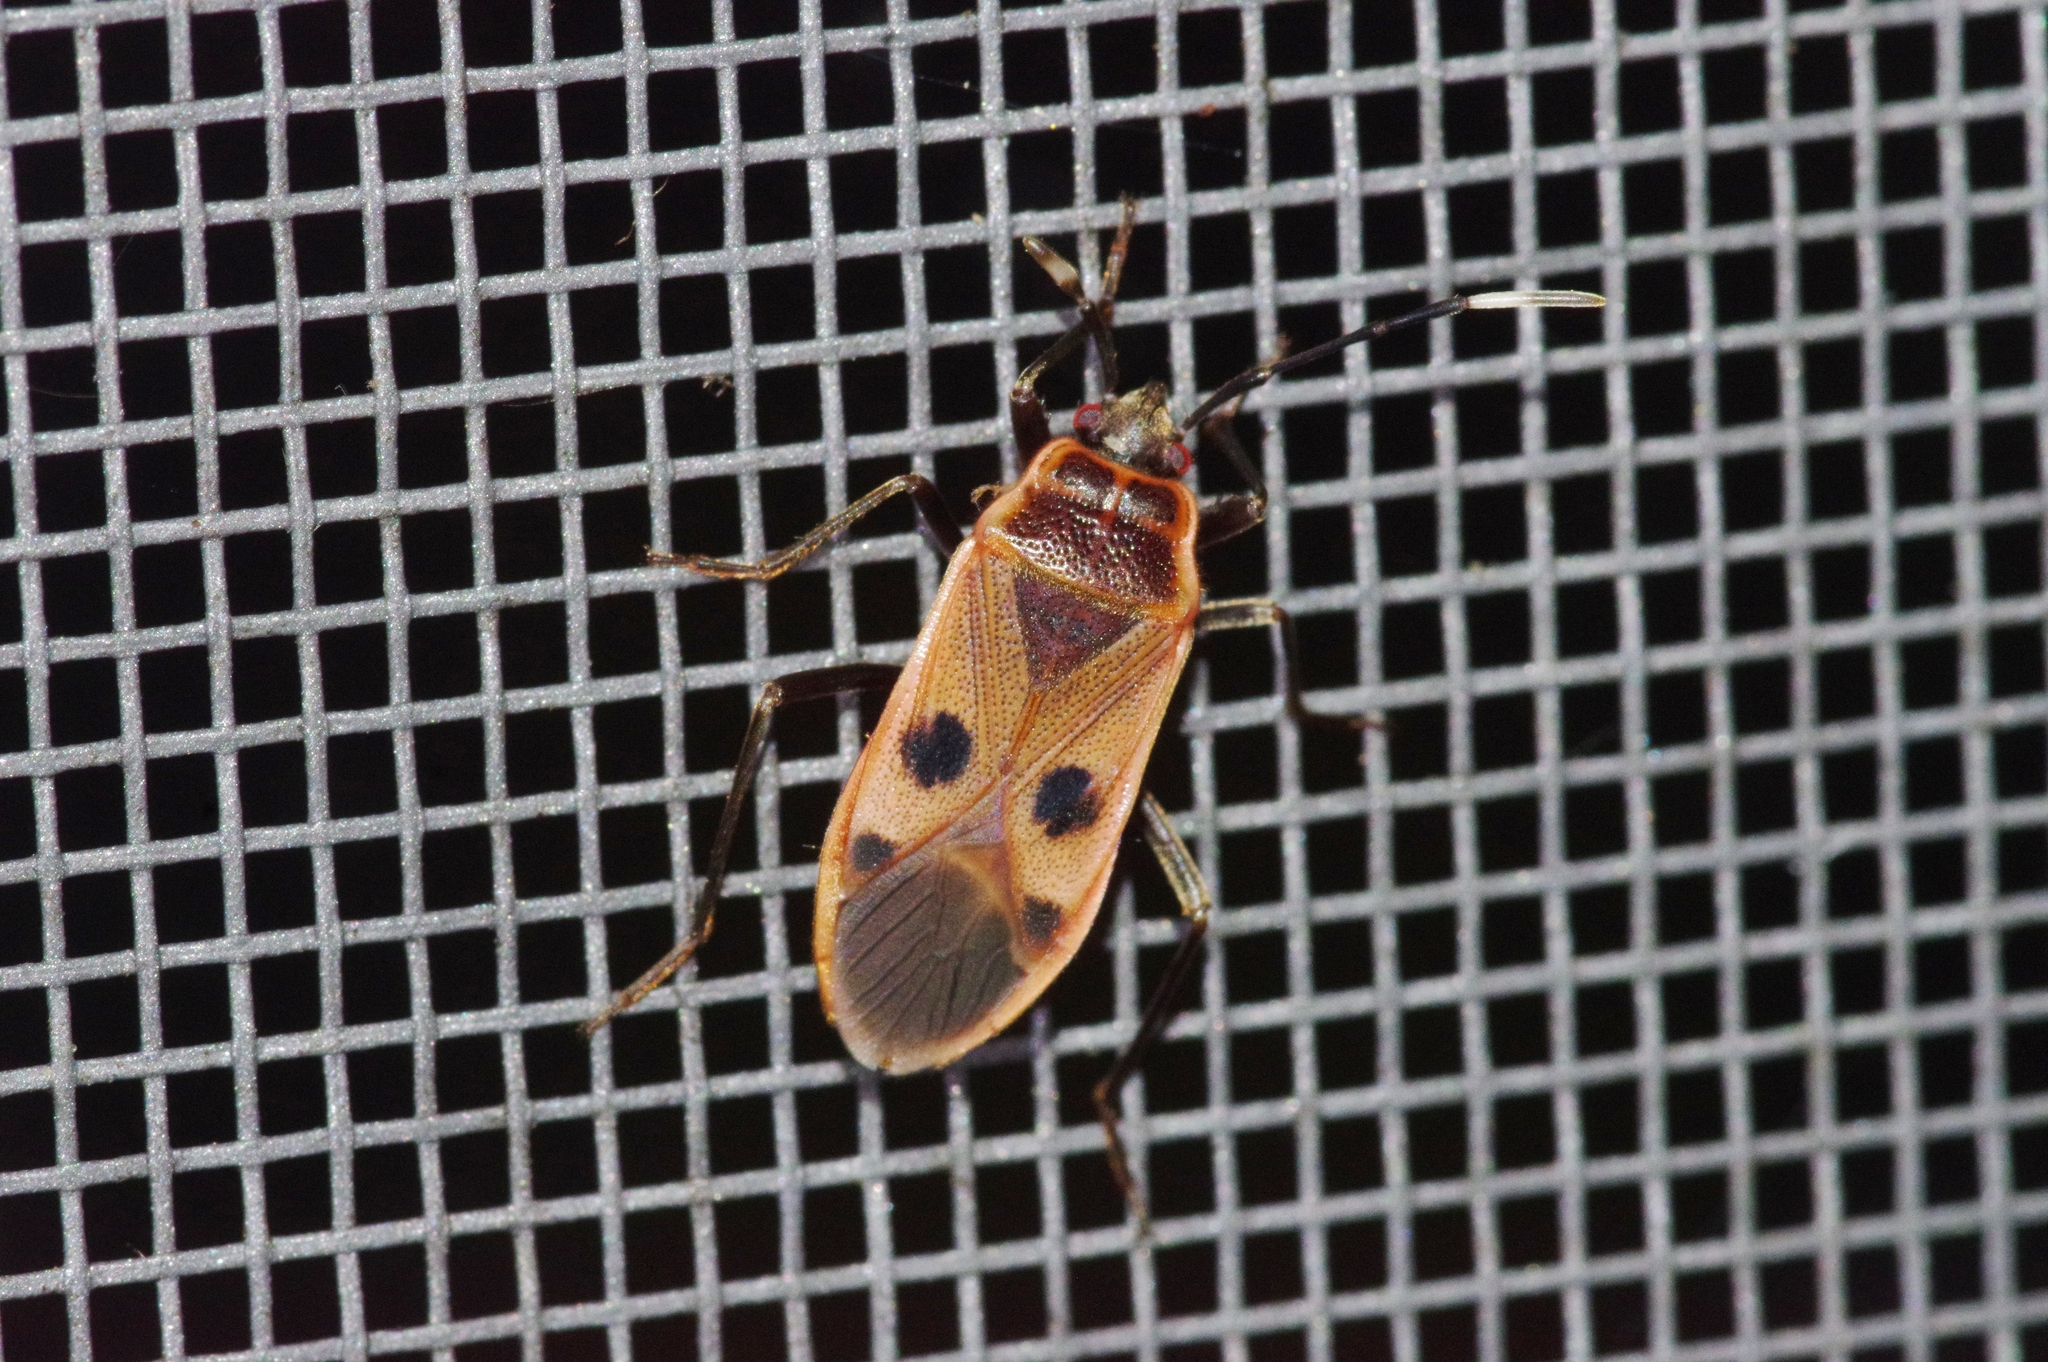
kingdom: Animalia
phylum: Arthropoda
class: Insecta
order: Hemiptera
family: Largidae
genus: Physopelta
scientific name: Physopelta fusciscutellata
